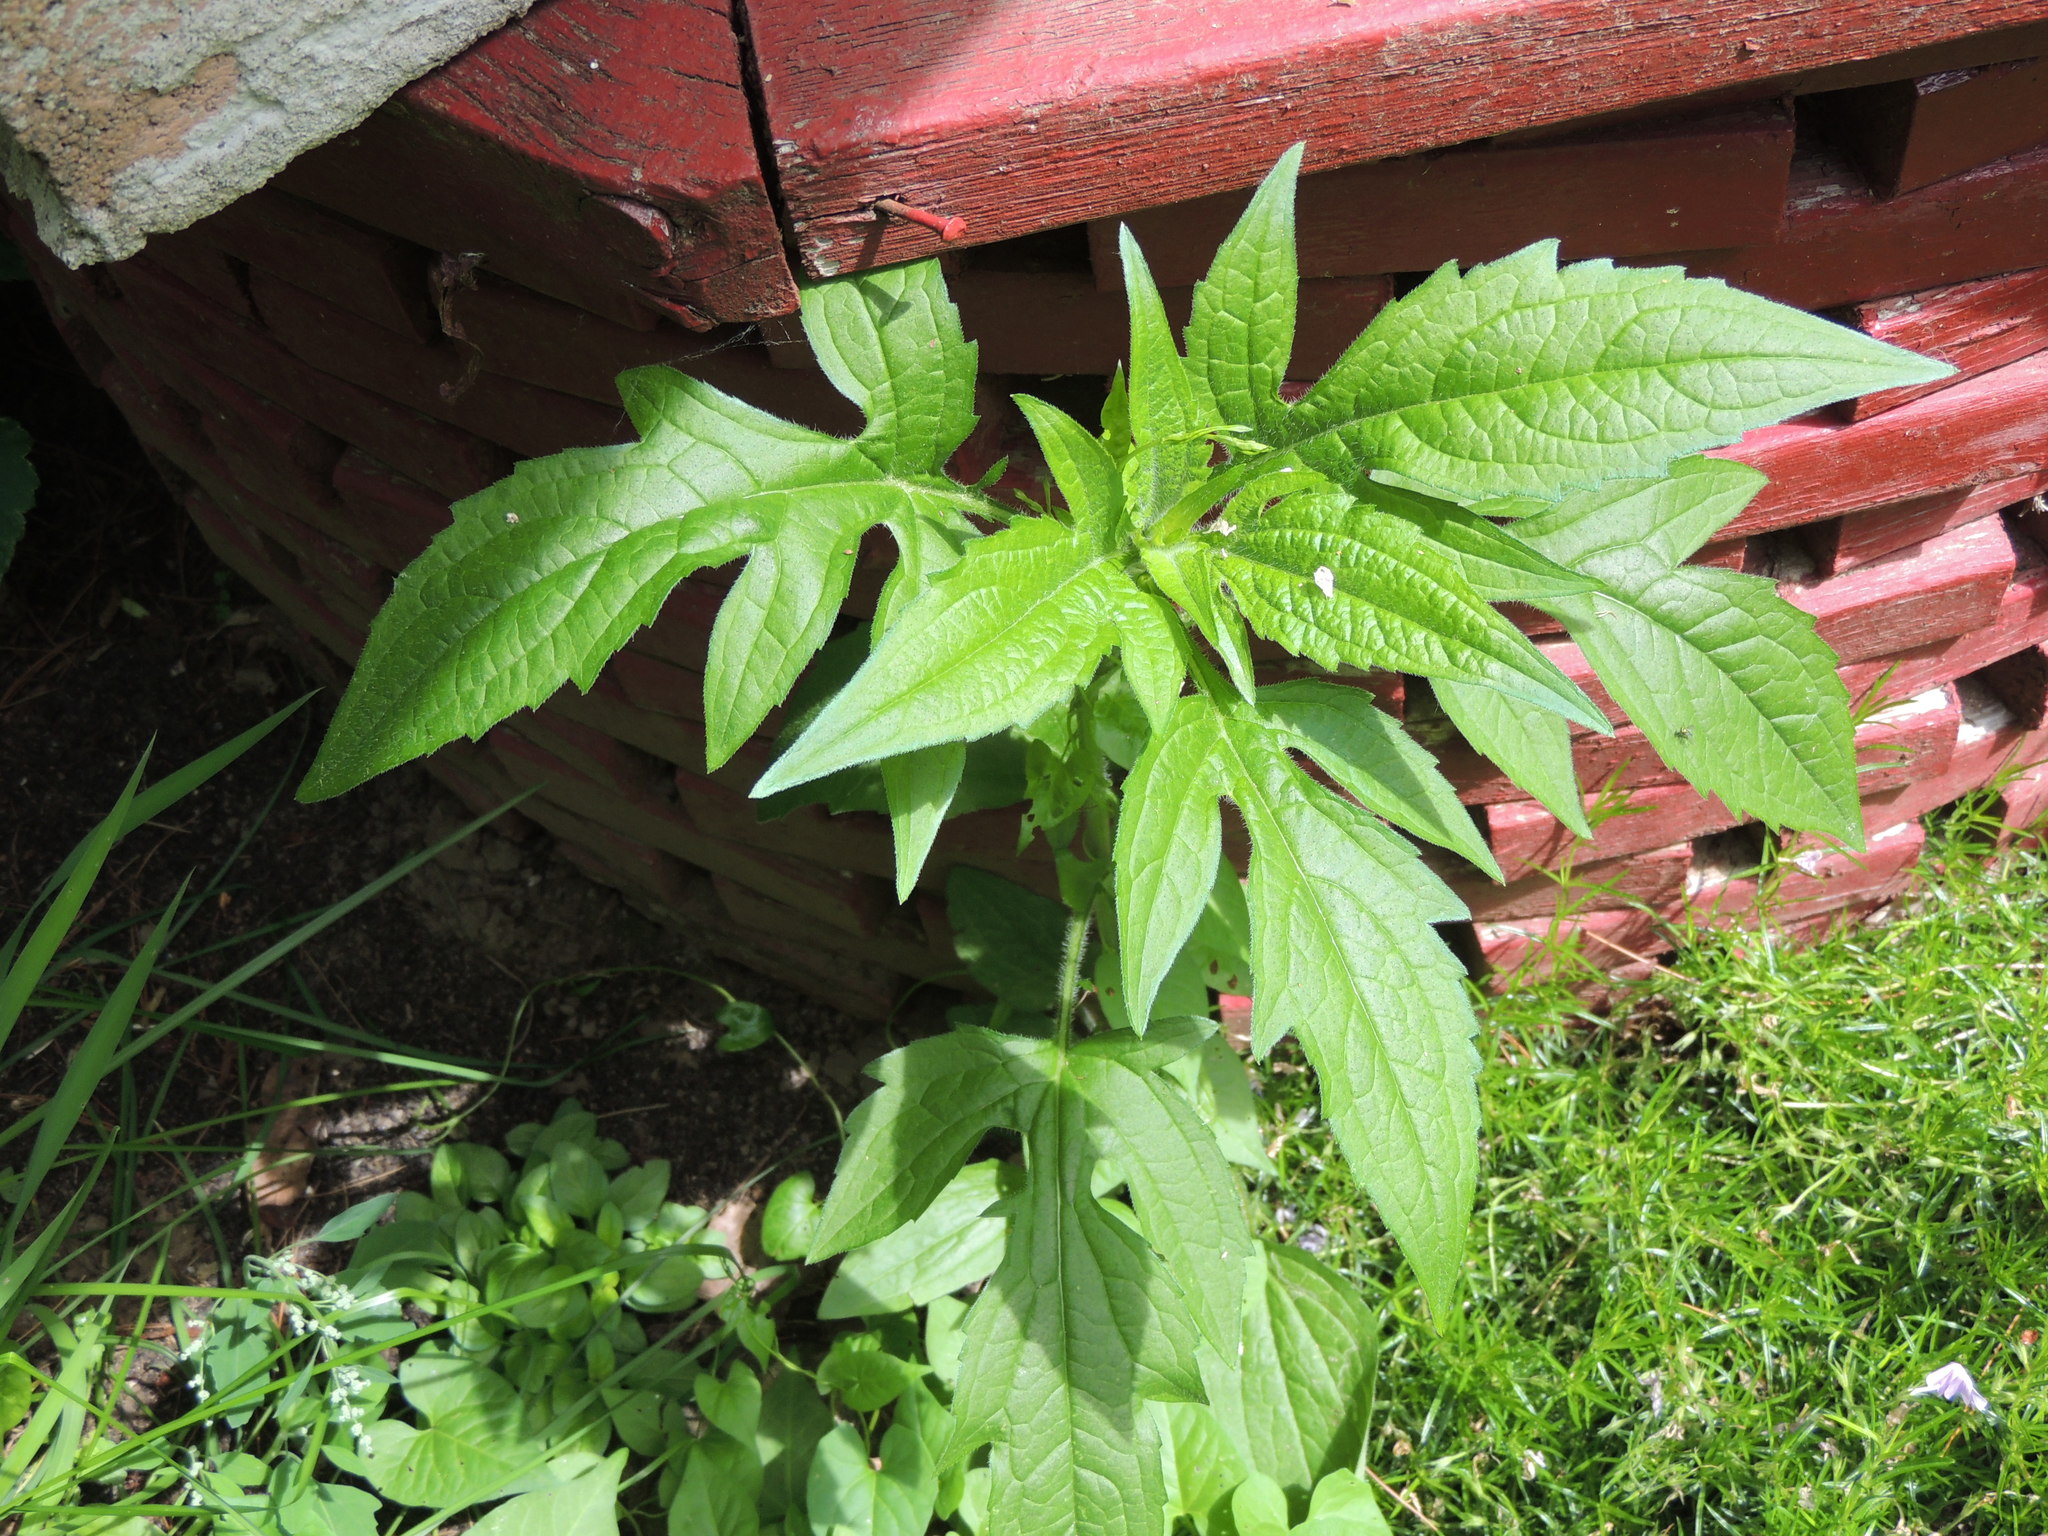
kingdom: Plantae
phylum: Tracheophyta
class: Magnoliopsida
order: Asterales
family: Asteraceae
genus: Rudbeckia
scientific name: Rudbeckia triloba
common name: Thin-leaved coneflower
